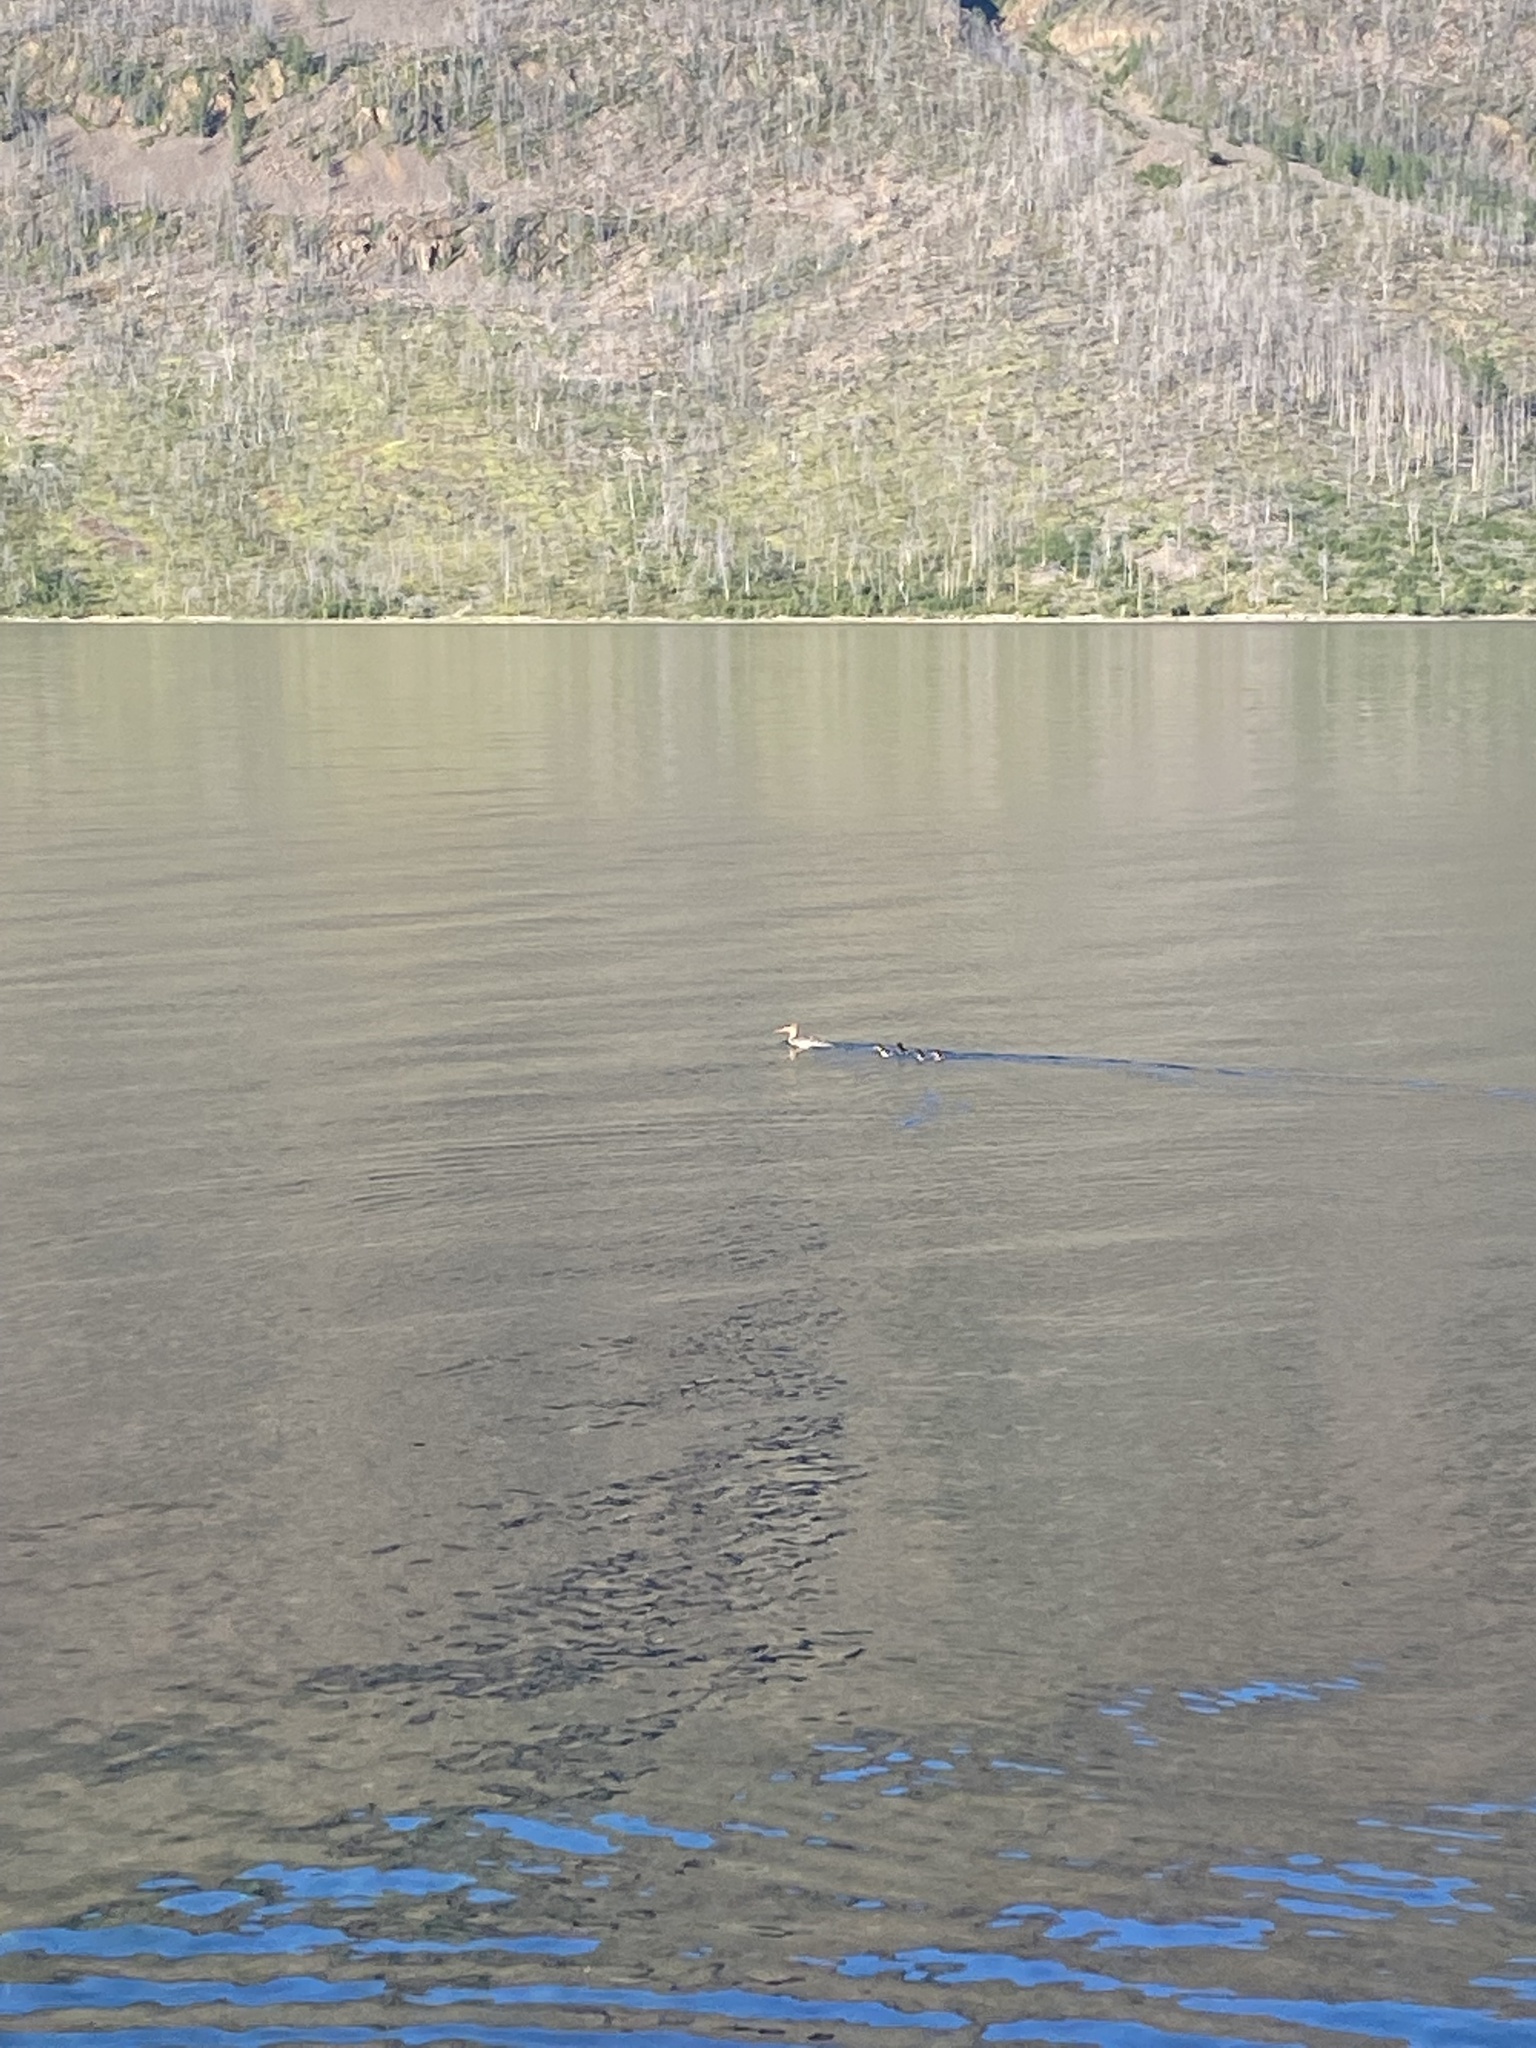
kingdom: Animalia
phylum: Chordata
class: Aves
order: Anseriformes
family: Anatidae
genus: Mergus
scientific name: Mergus serrator
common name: Red-breasted merganser
